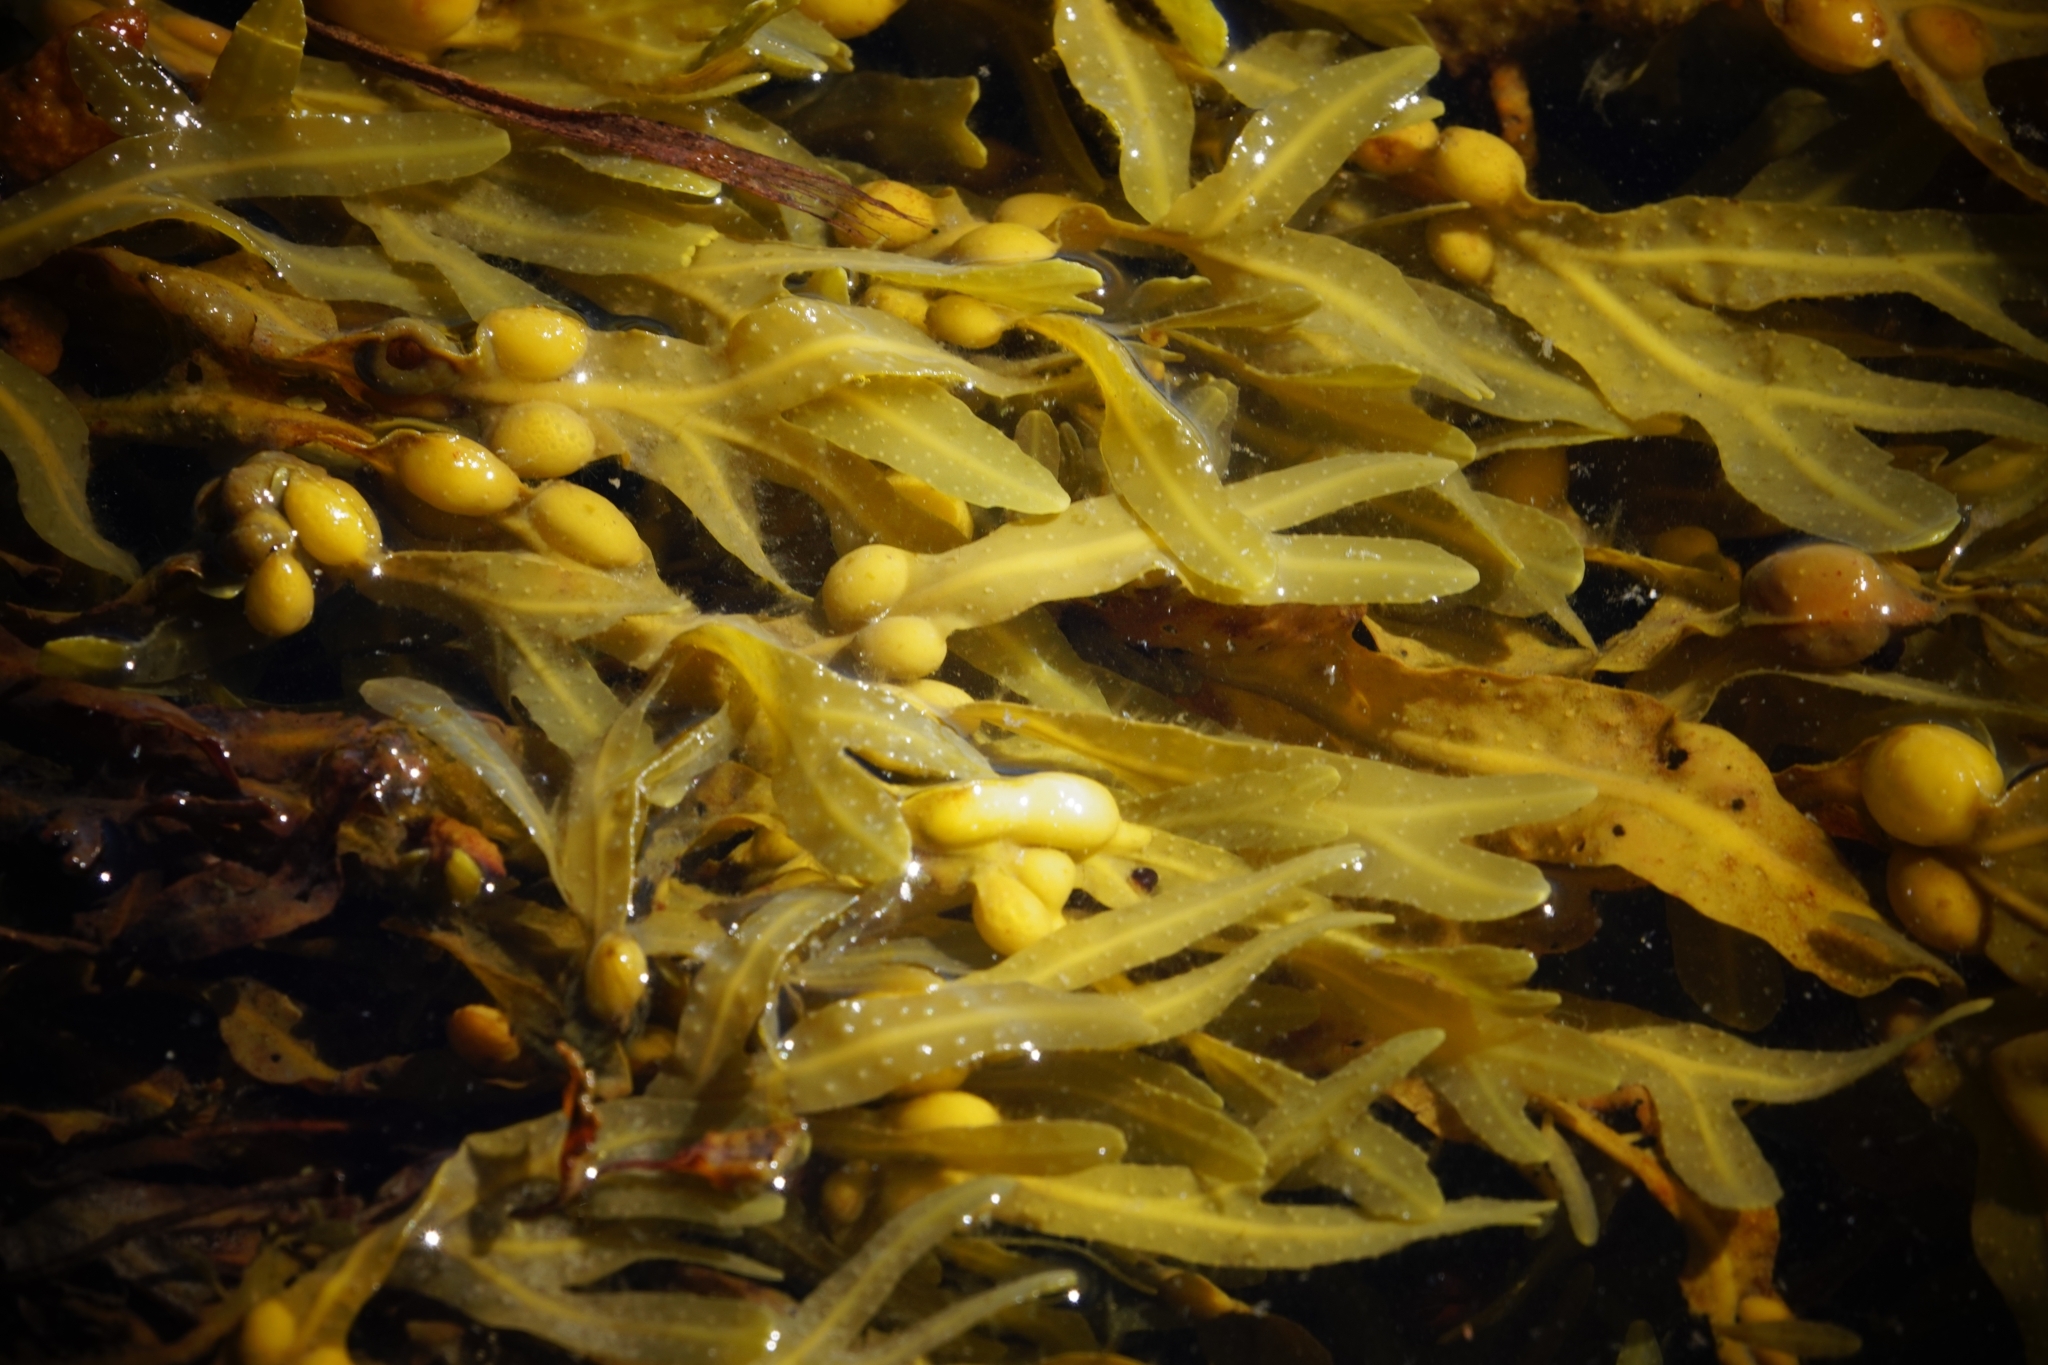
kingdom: Chromista
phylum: Ochrophyta
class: Phaeophyceae
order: Fucales
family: Fucaceae
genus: Fucus
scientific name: Fucus vesiculosus
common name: Bladder wrack
